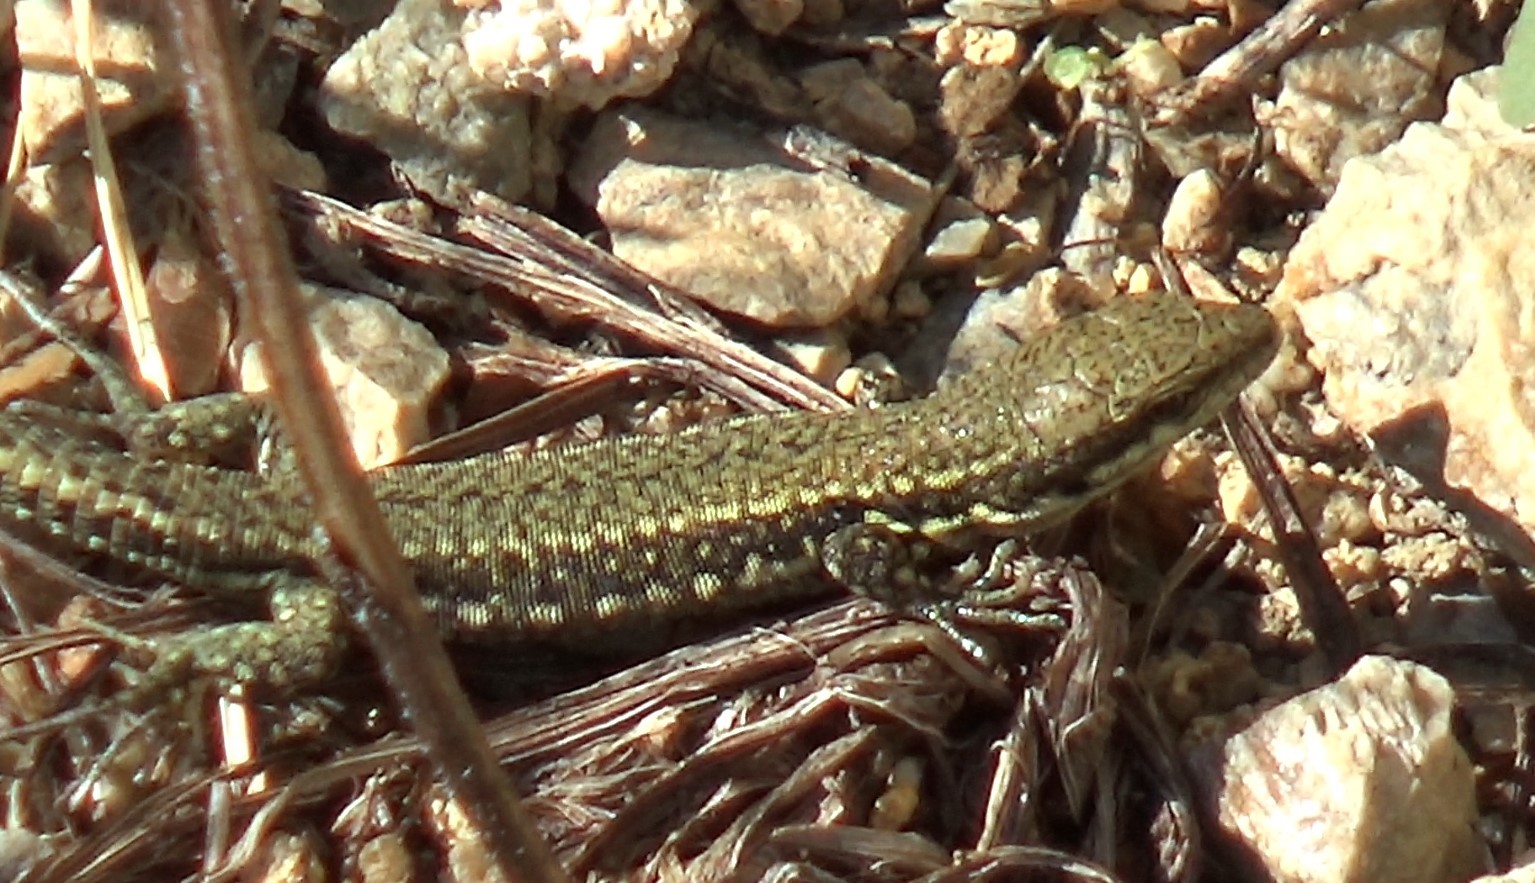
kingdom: Animalia
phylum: Chordata
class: Squamata
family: Lacertidae
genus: Podarcis
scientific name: Podarcis muralis
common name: Common wall lizard
